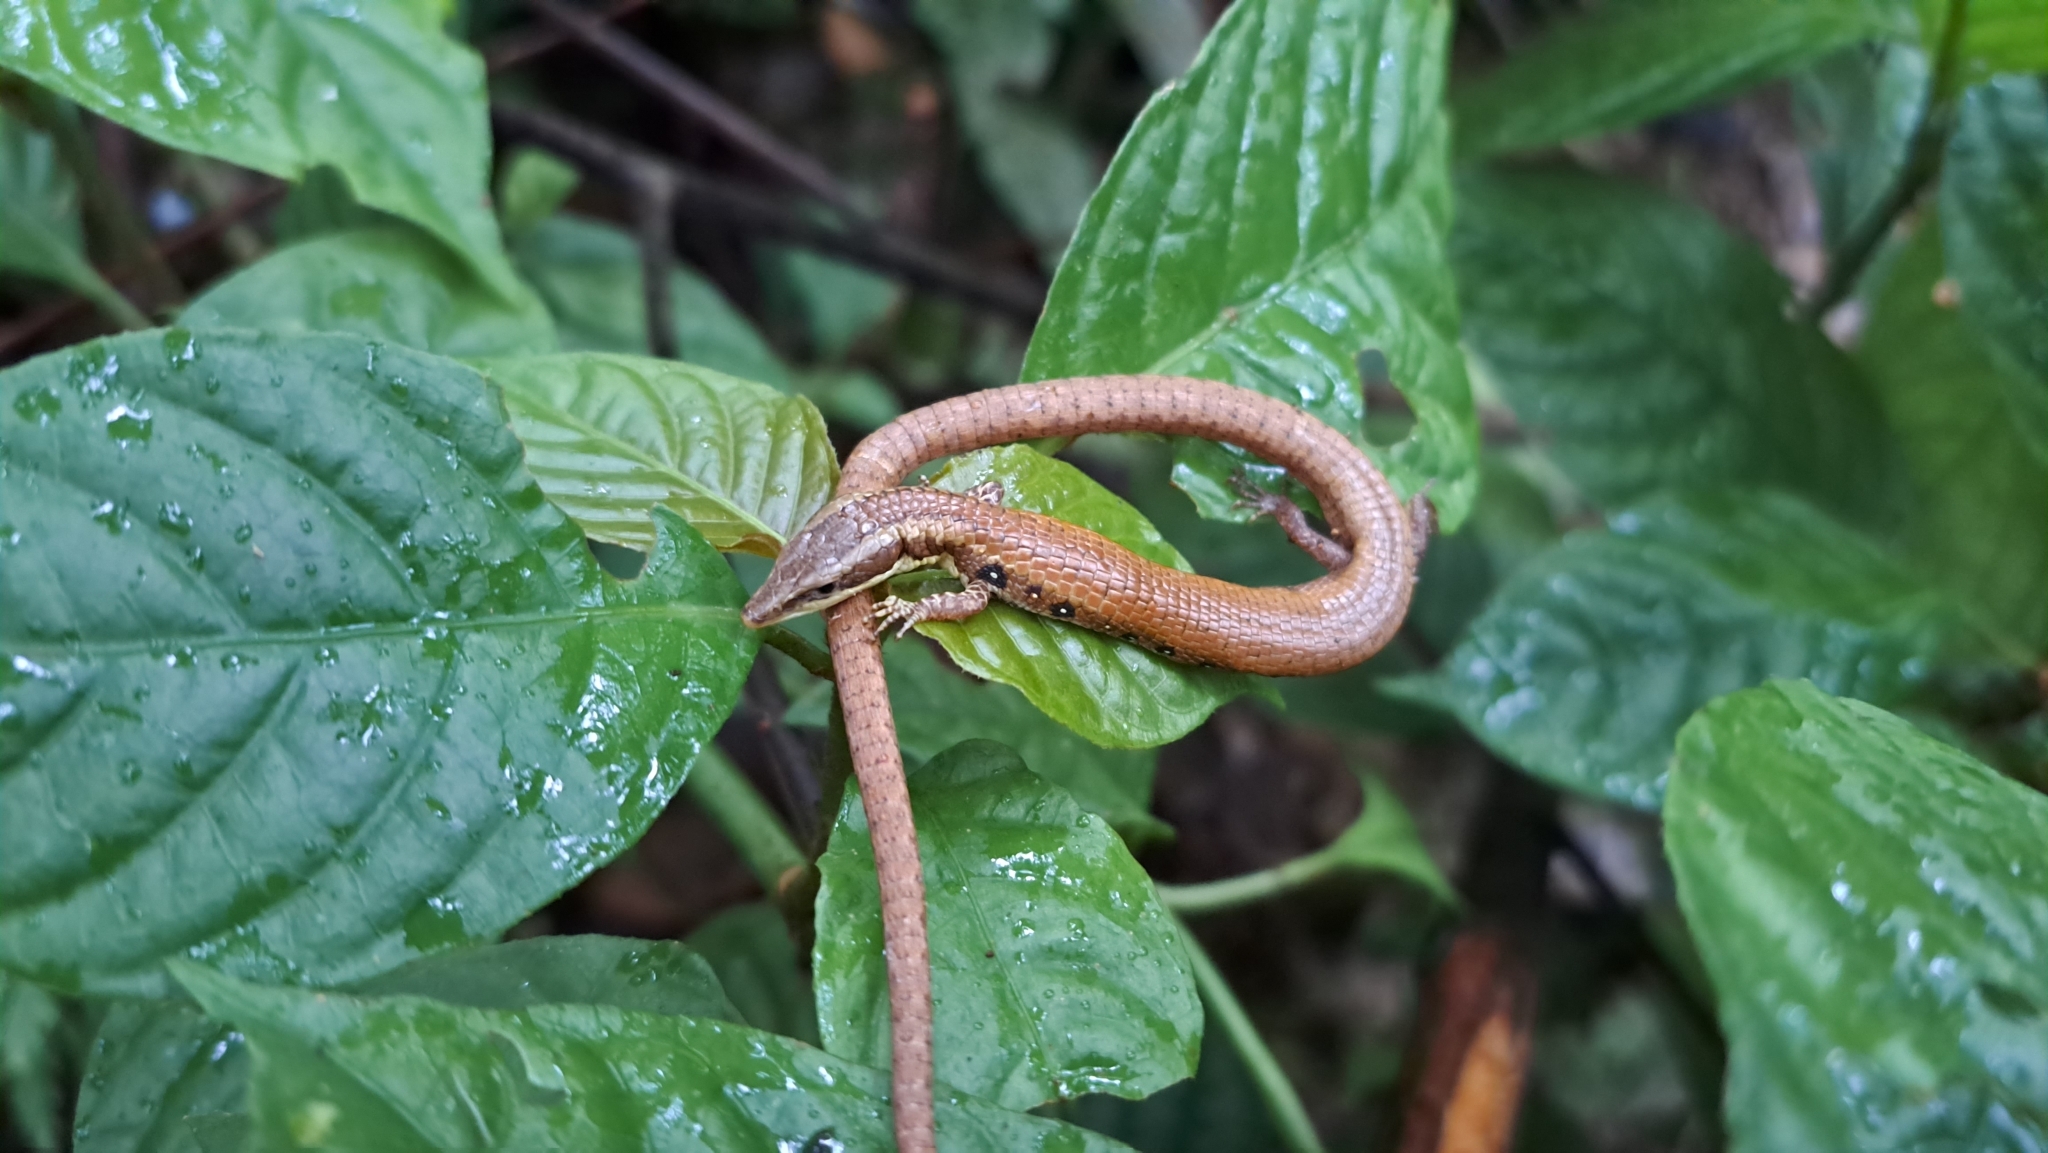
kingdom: Animalia
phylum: Chordata
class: Squamata
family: Gymnophthalmidae
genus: Anadia
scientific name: Anadia ocellata
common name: Ocellated anadia
